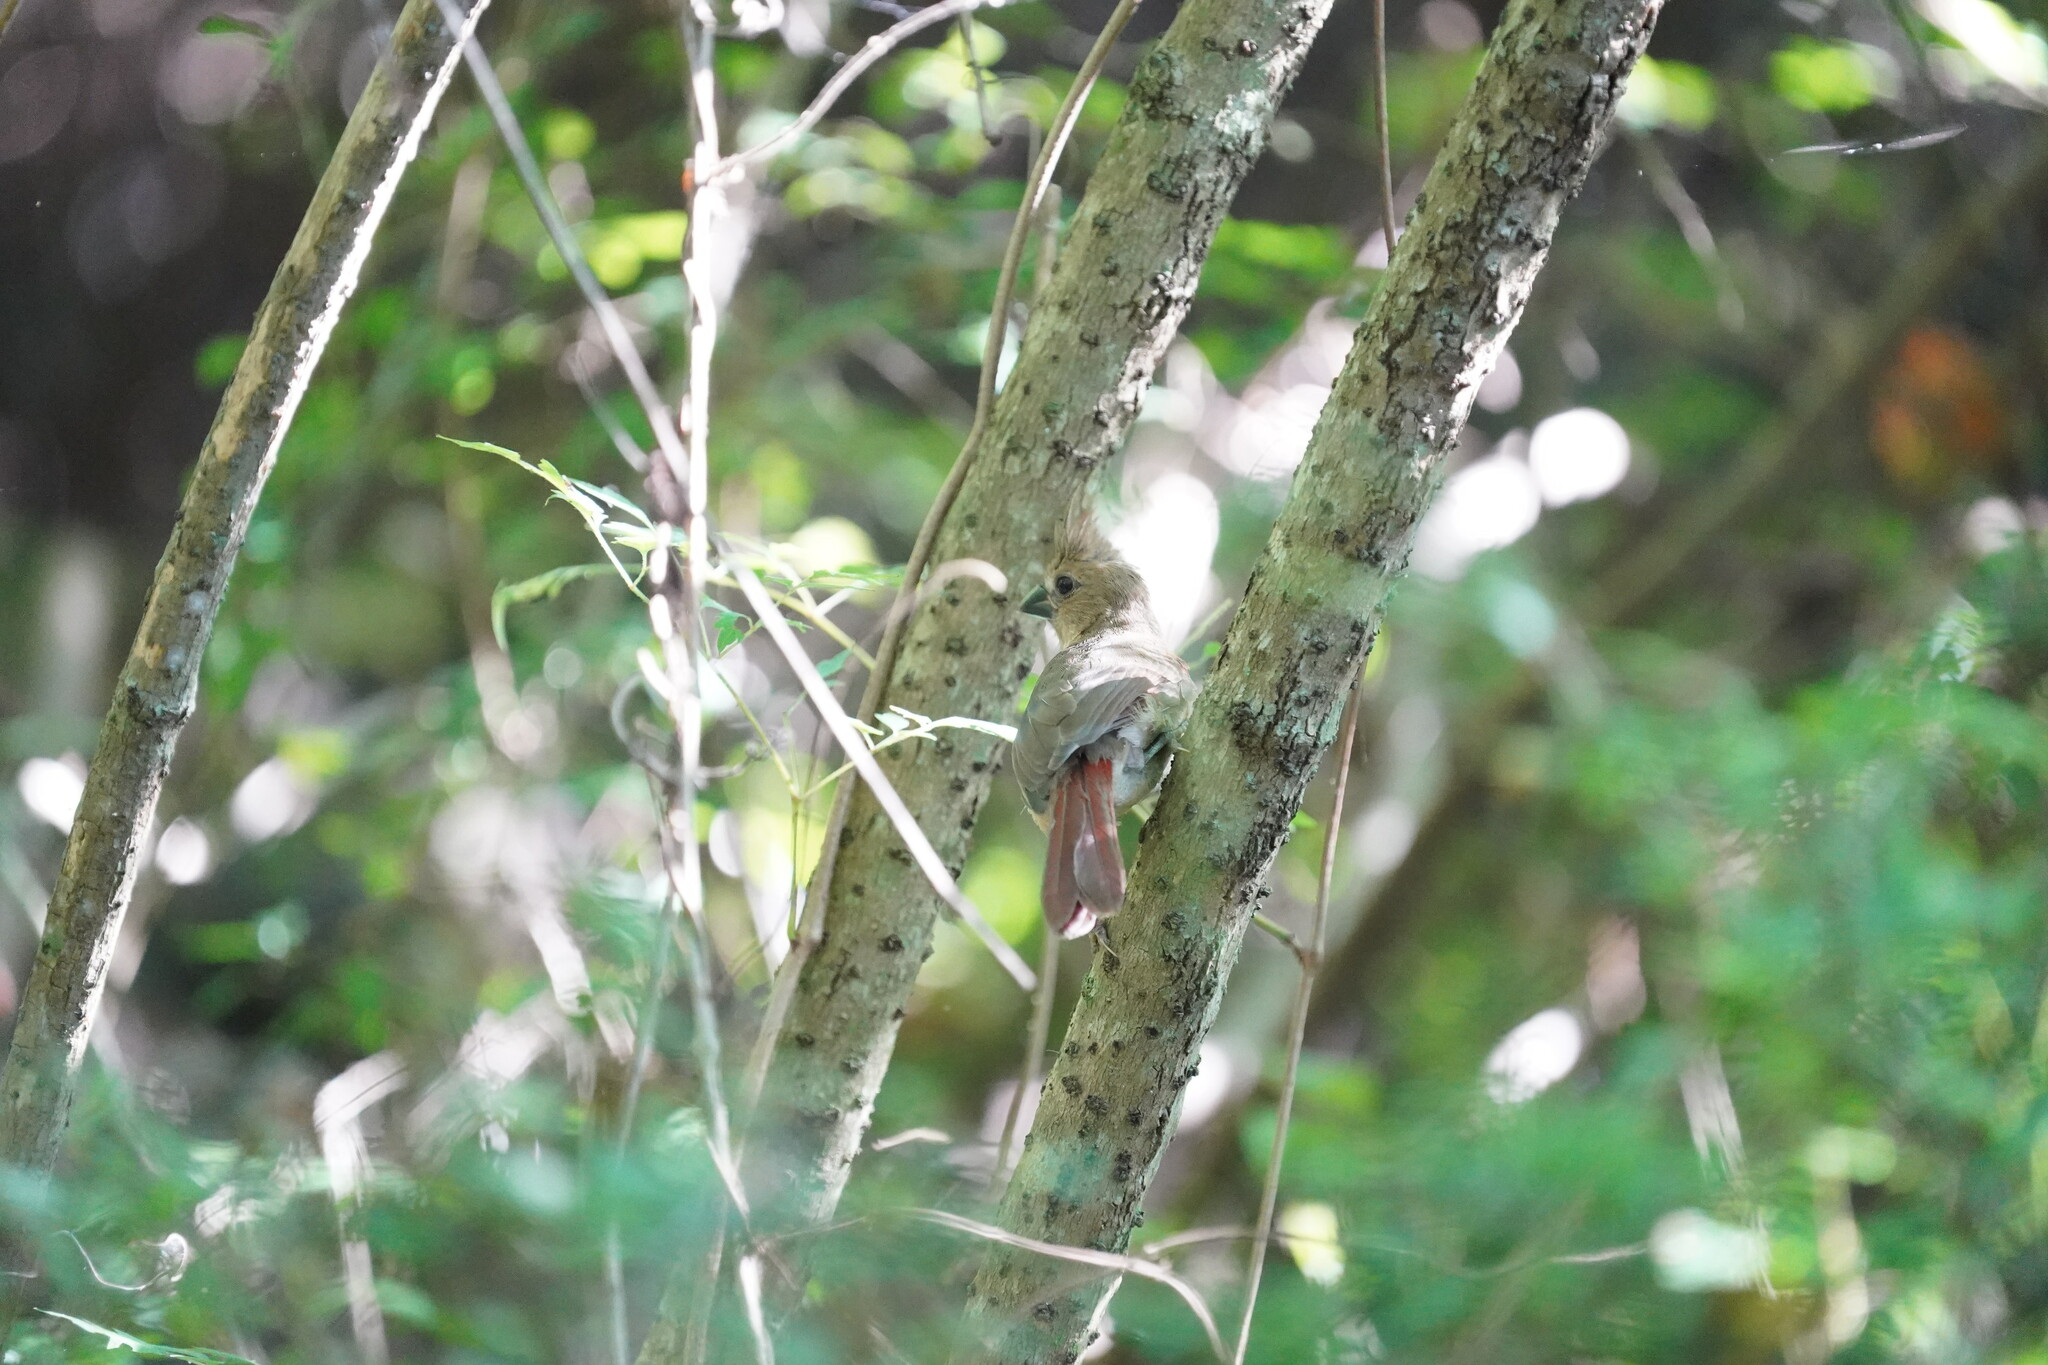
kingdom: Animalia
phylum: Chordata
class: Aves
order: Passeriformes
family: Cardinalidae
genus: Cardinalis
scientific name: Cardinalis cardinalis
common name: Northern cardinal
